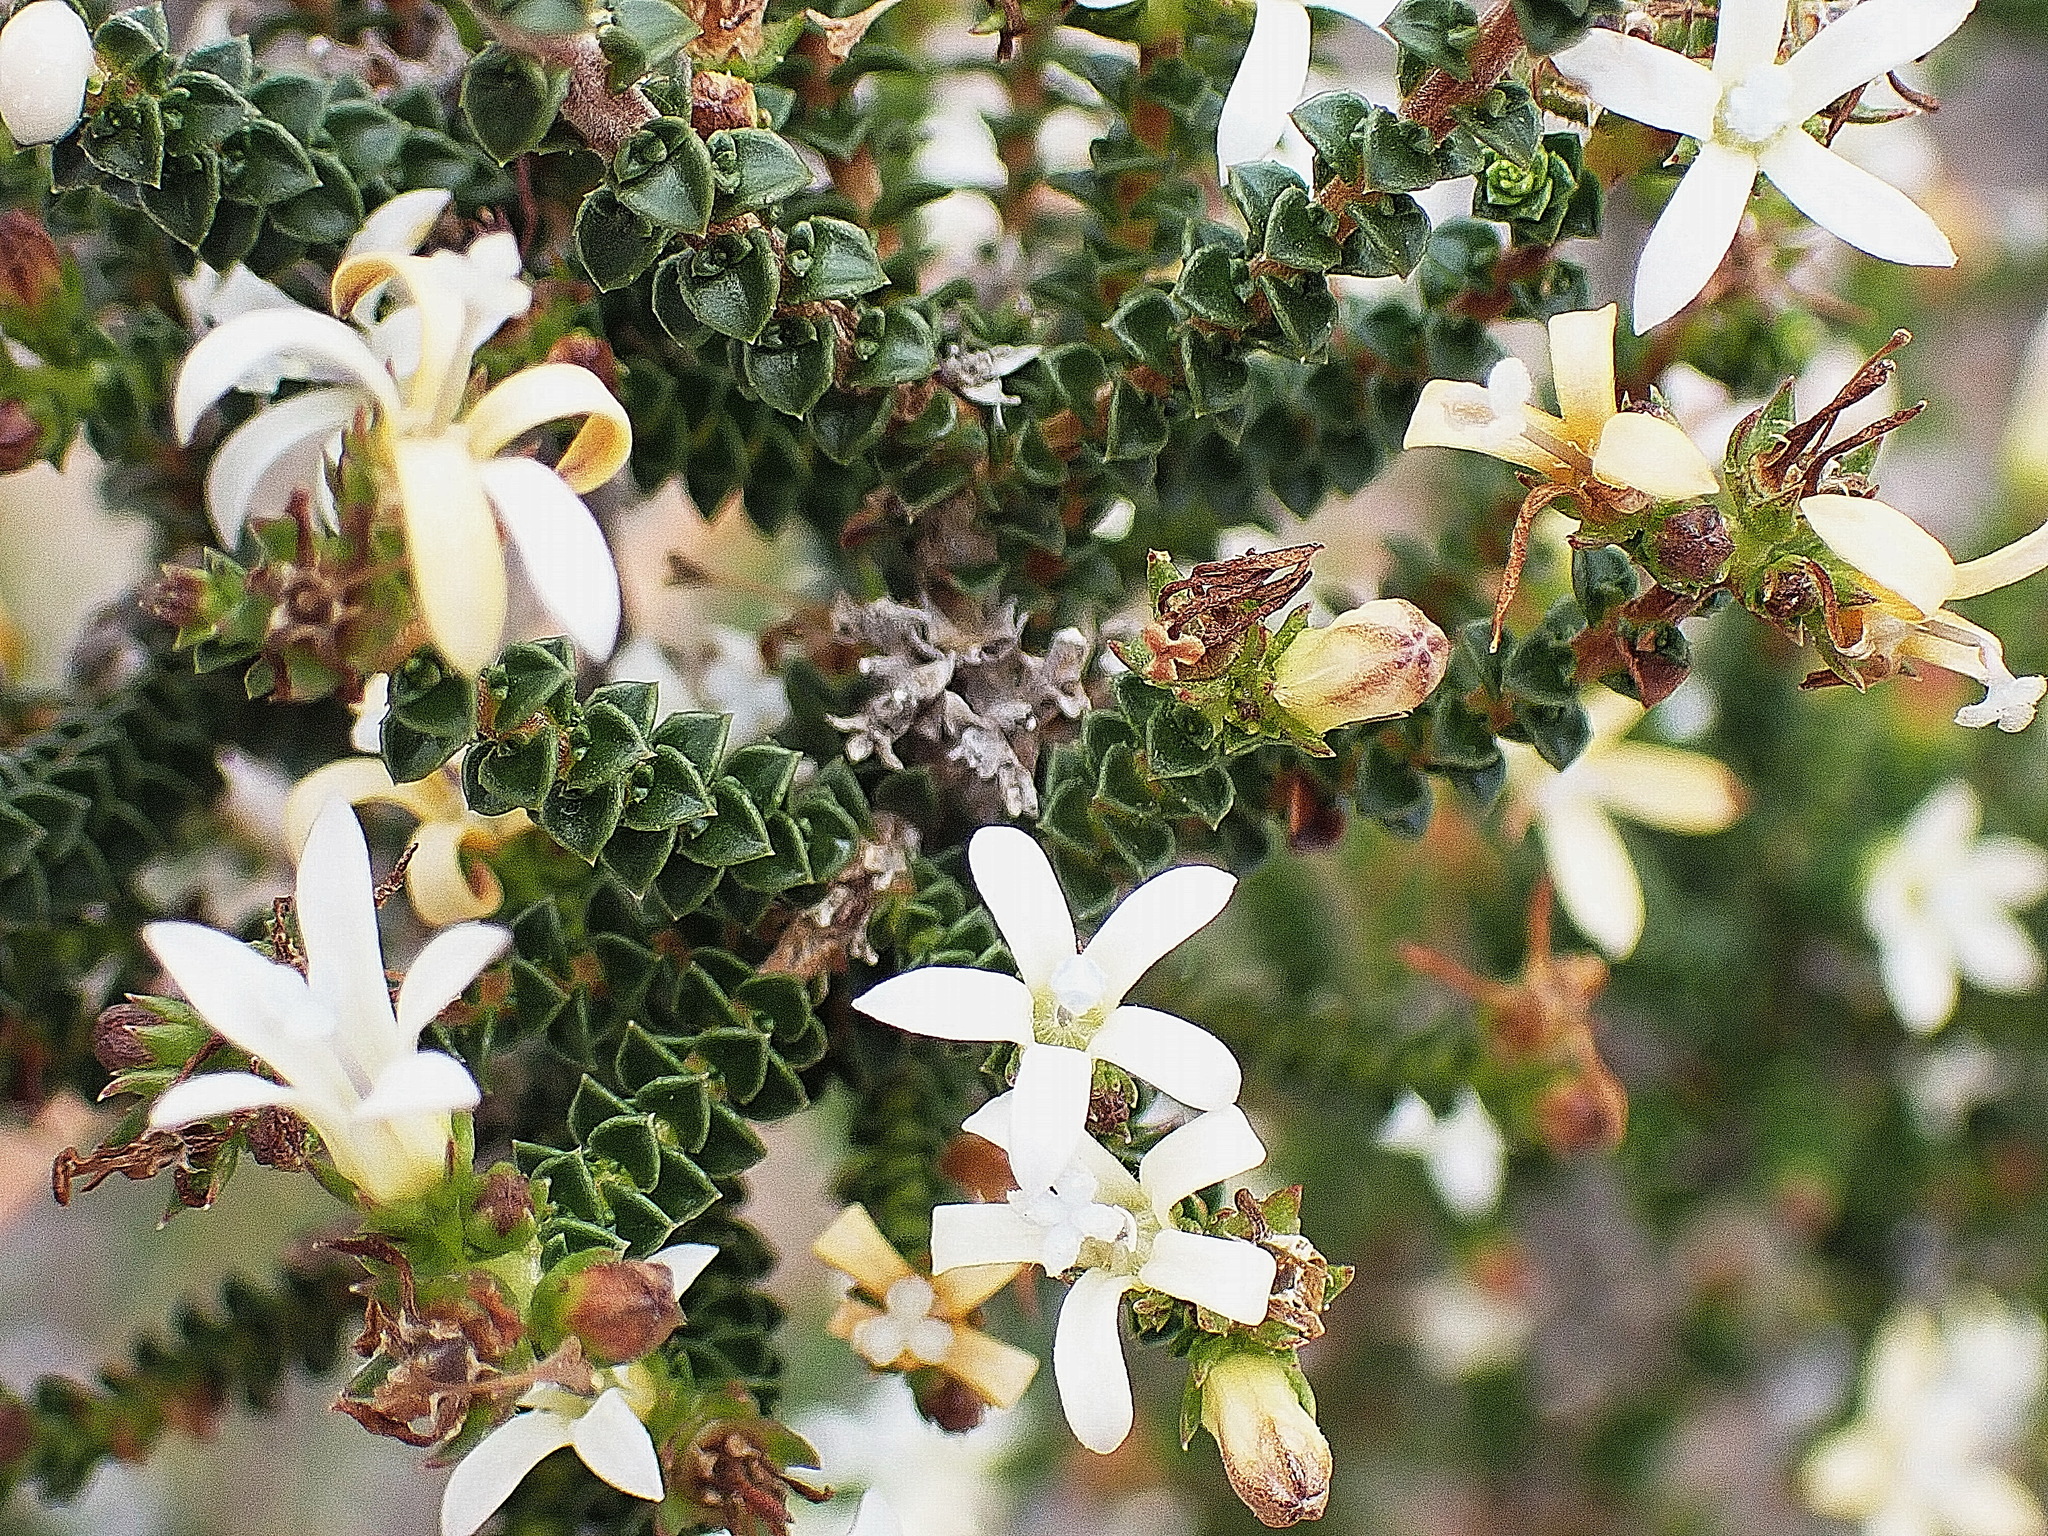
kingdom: Plantae
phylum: Tracheophyta
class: Magnoliopsida
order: Asterales
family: Campanulaceae
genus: Wahlenbergia
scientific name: Wahlenbergia neorigida
